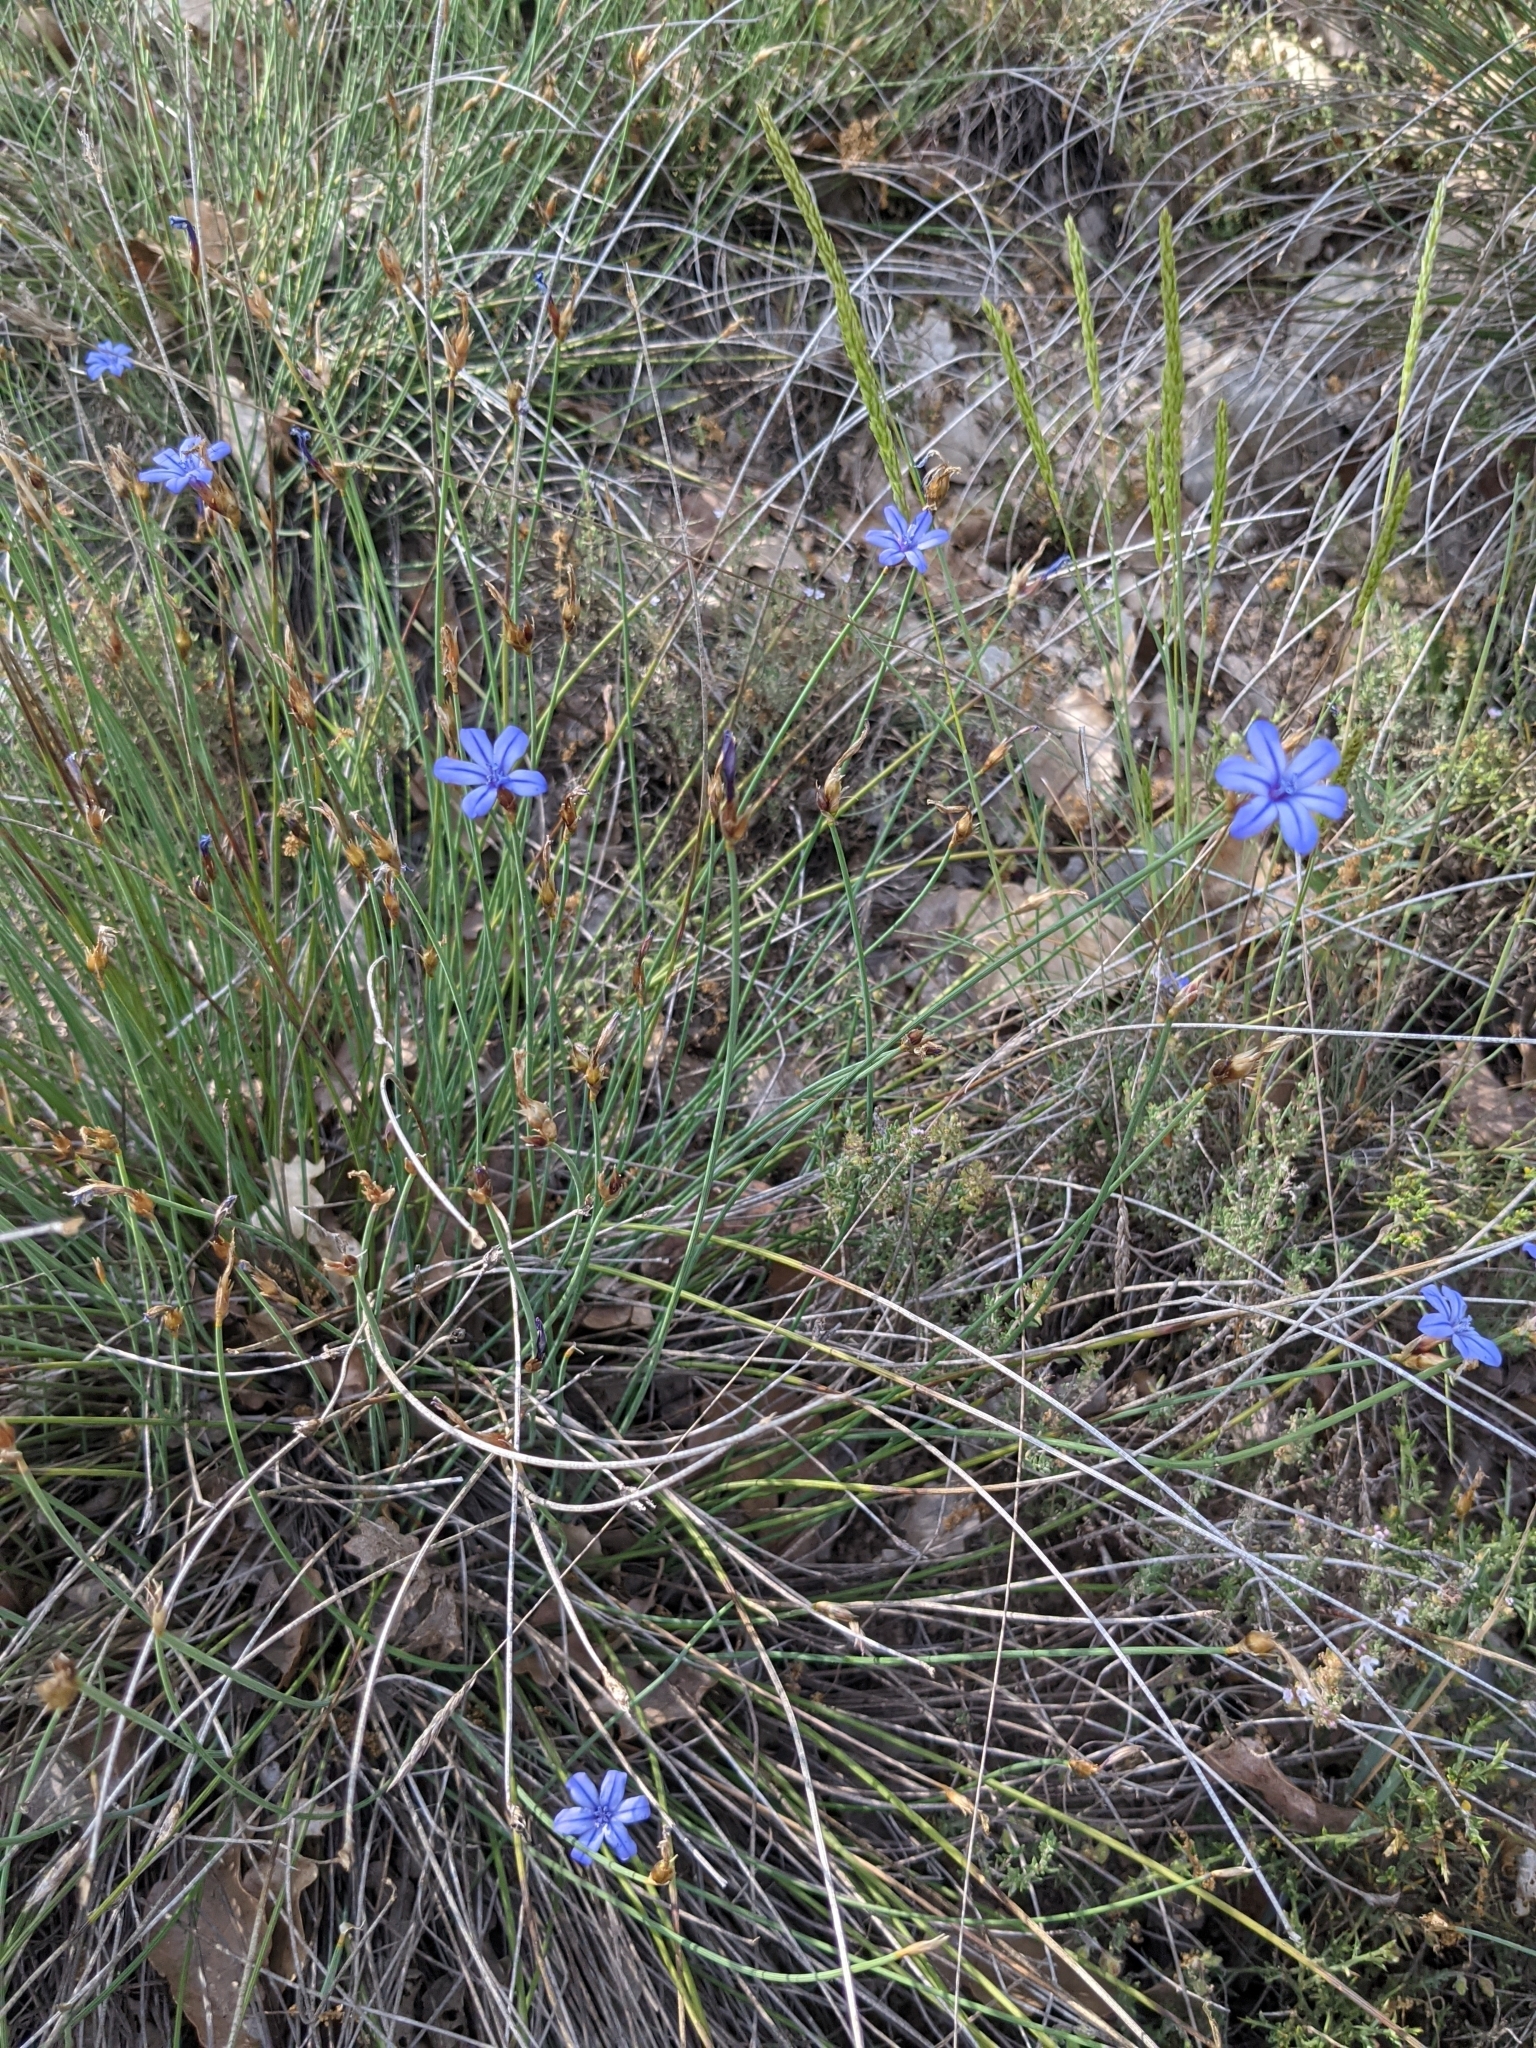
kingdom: Plantae
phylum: Tracheophyta
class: Liliopsida
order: Asparagales
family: Asparagaceae
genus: Aphyllanthes
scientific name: Aphyllanthes monspeliensis
